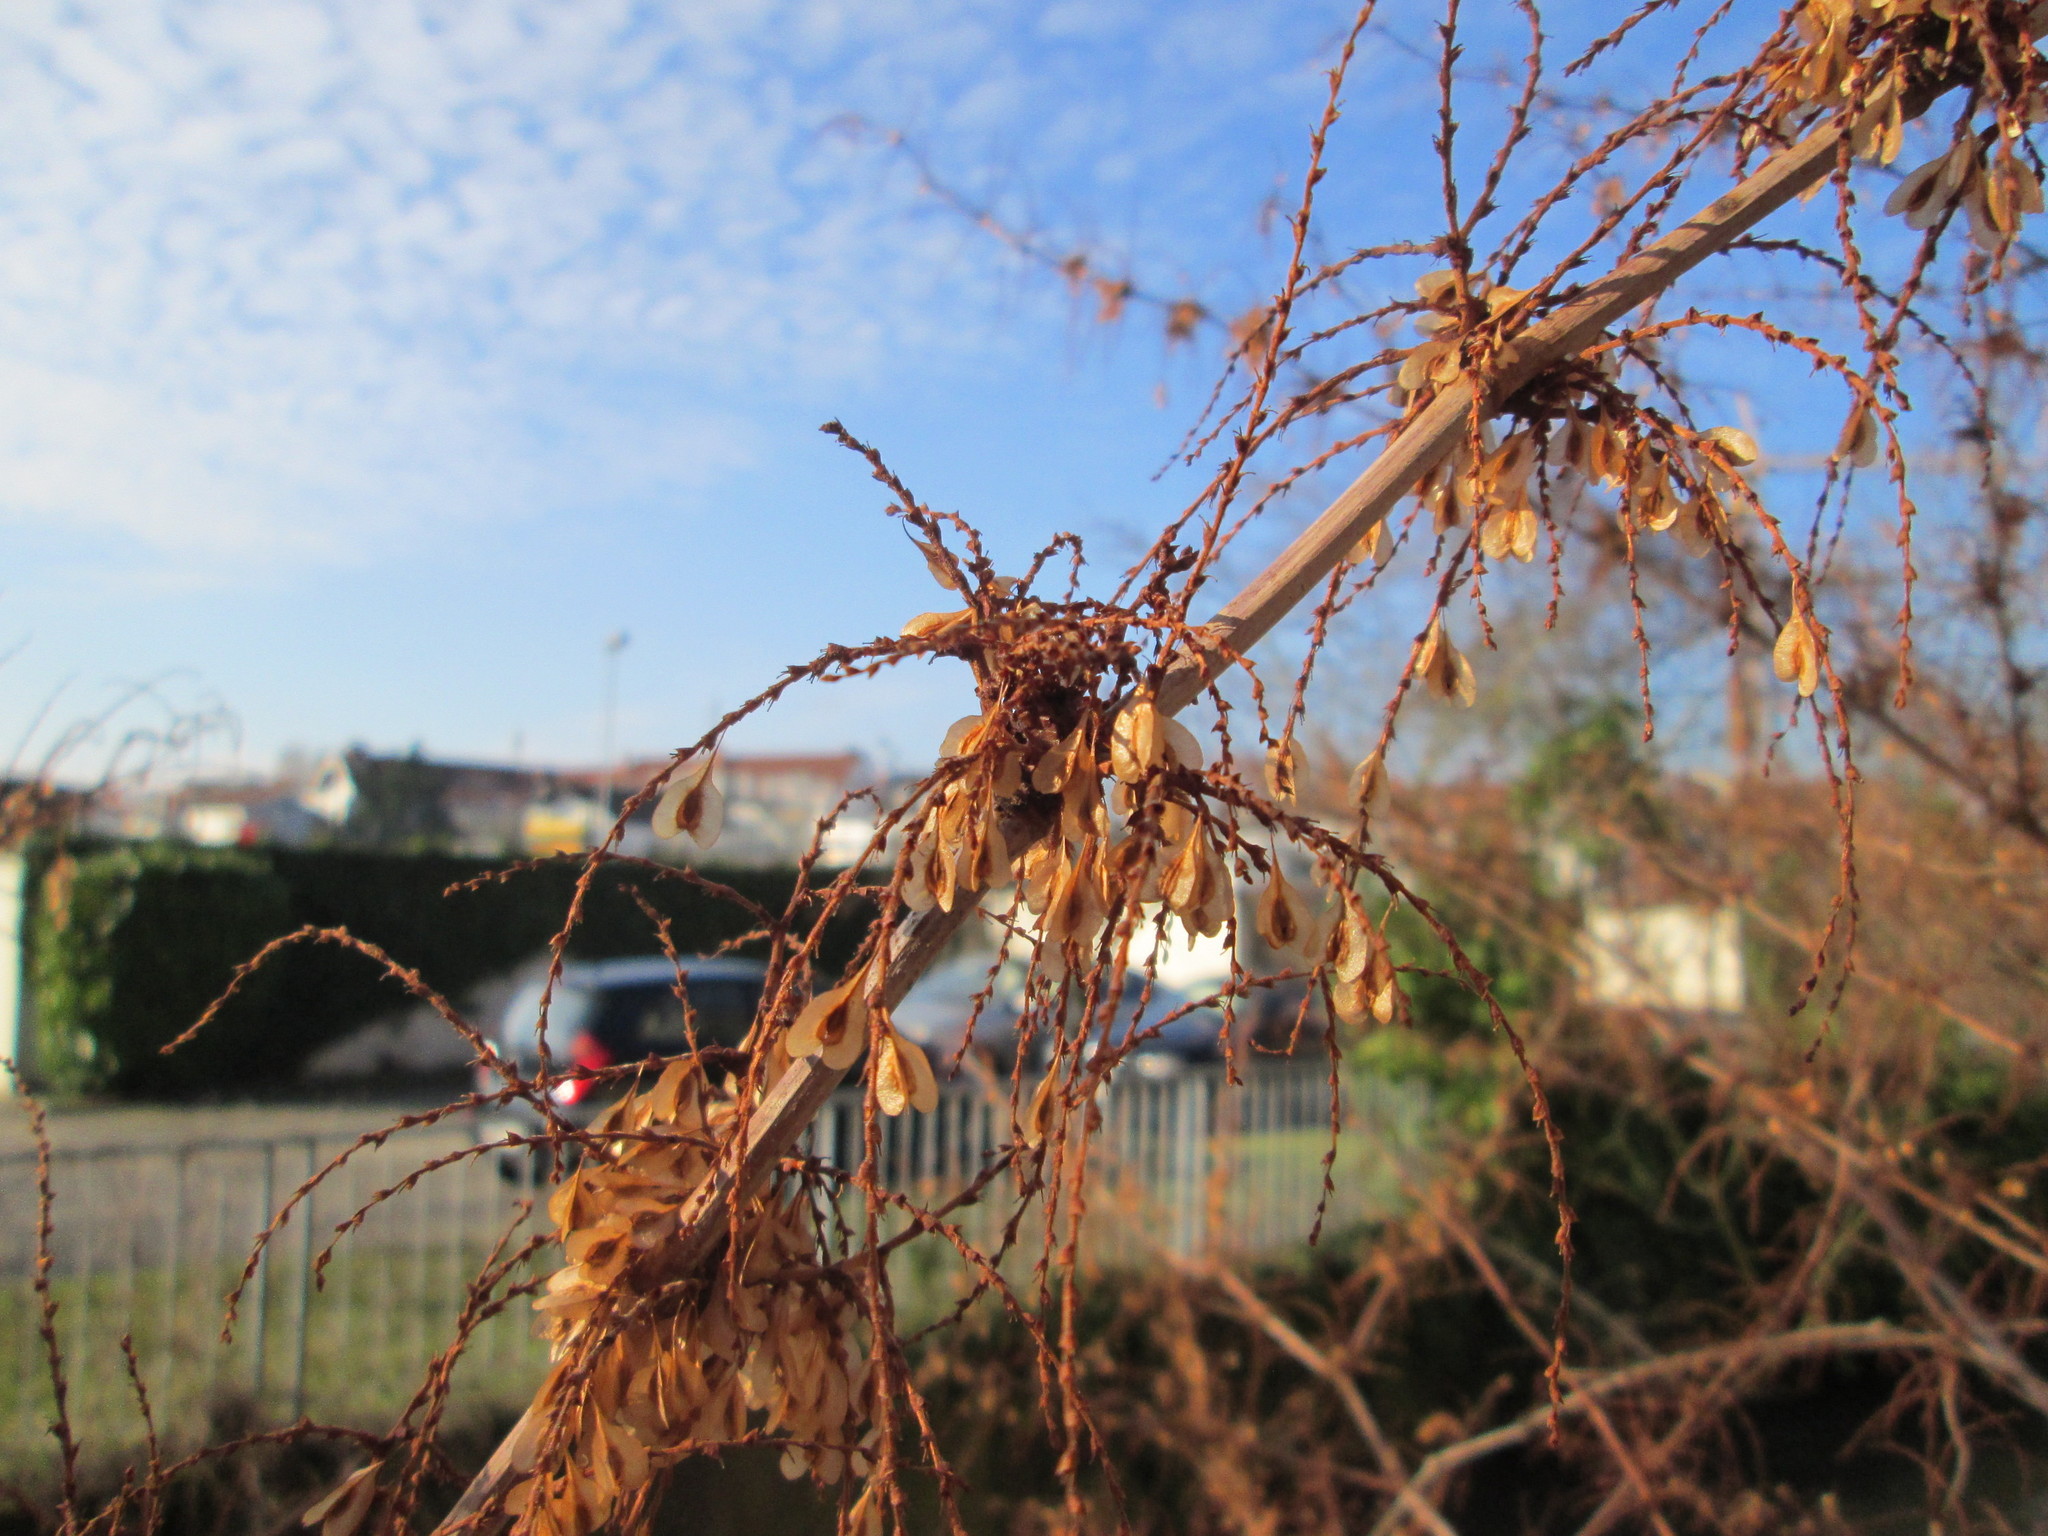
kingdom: Plantae
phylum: Tracheophyta
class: Magnoliopsida
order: Caryophyllales
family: Polygonaceae
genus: Reynoutria
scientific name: Reynoutria japonica
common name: Japanese knotweed
